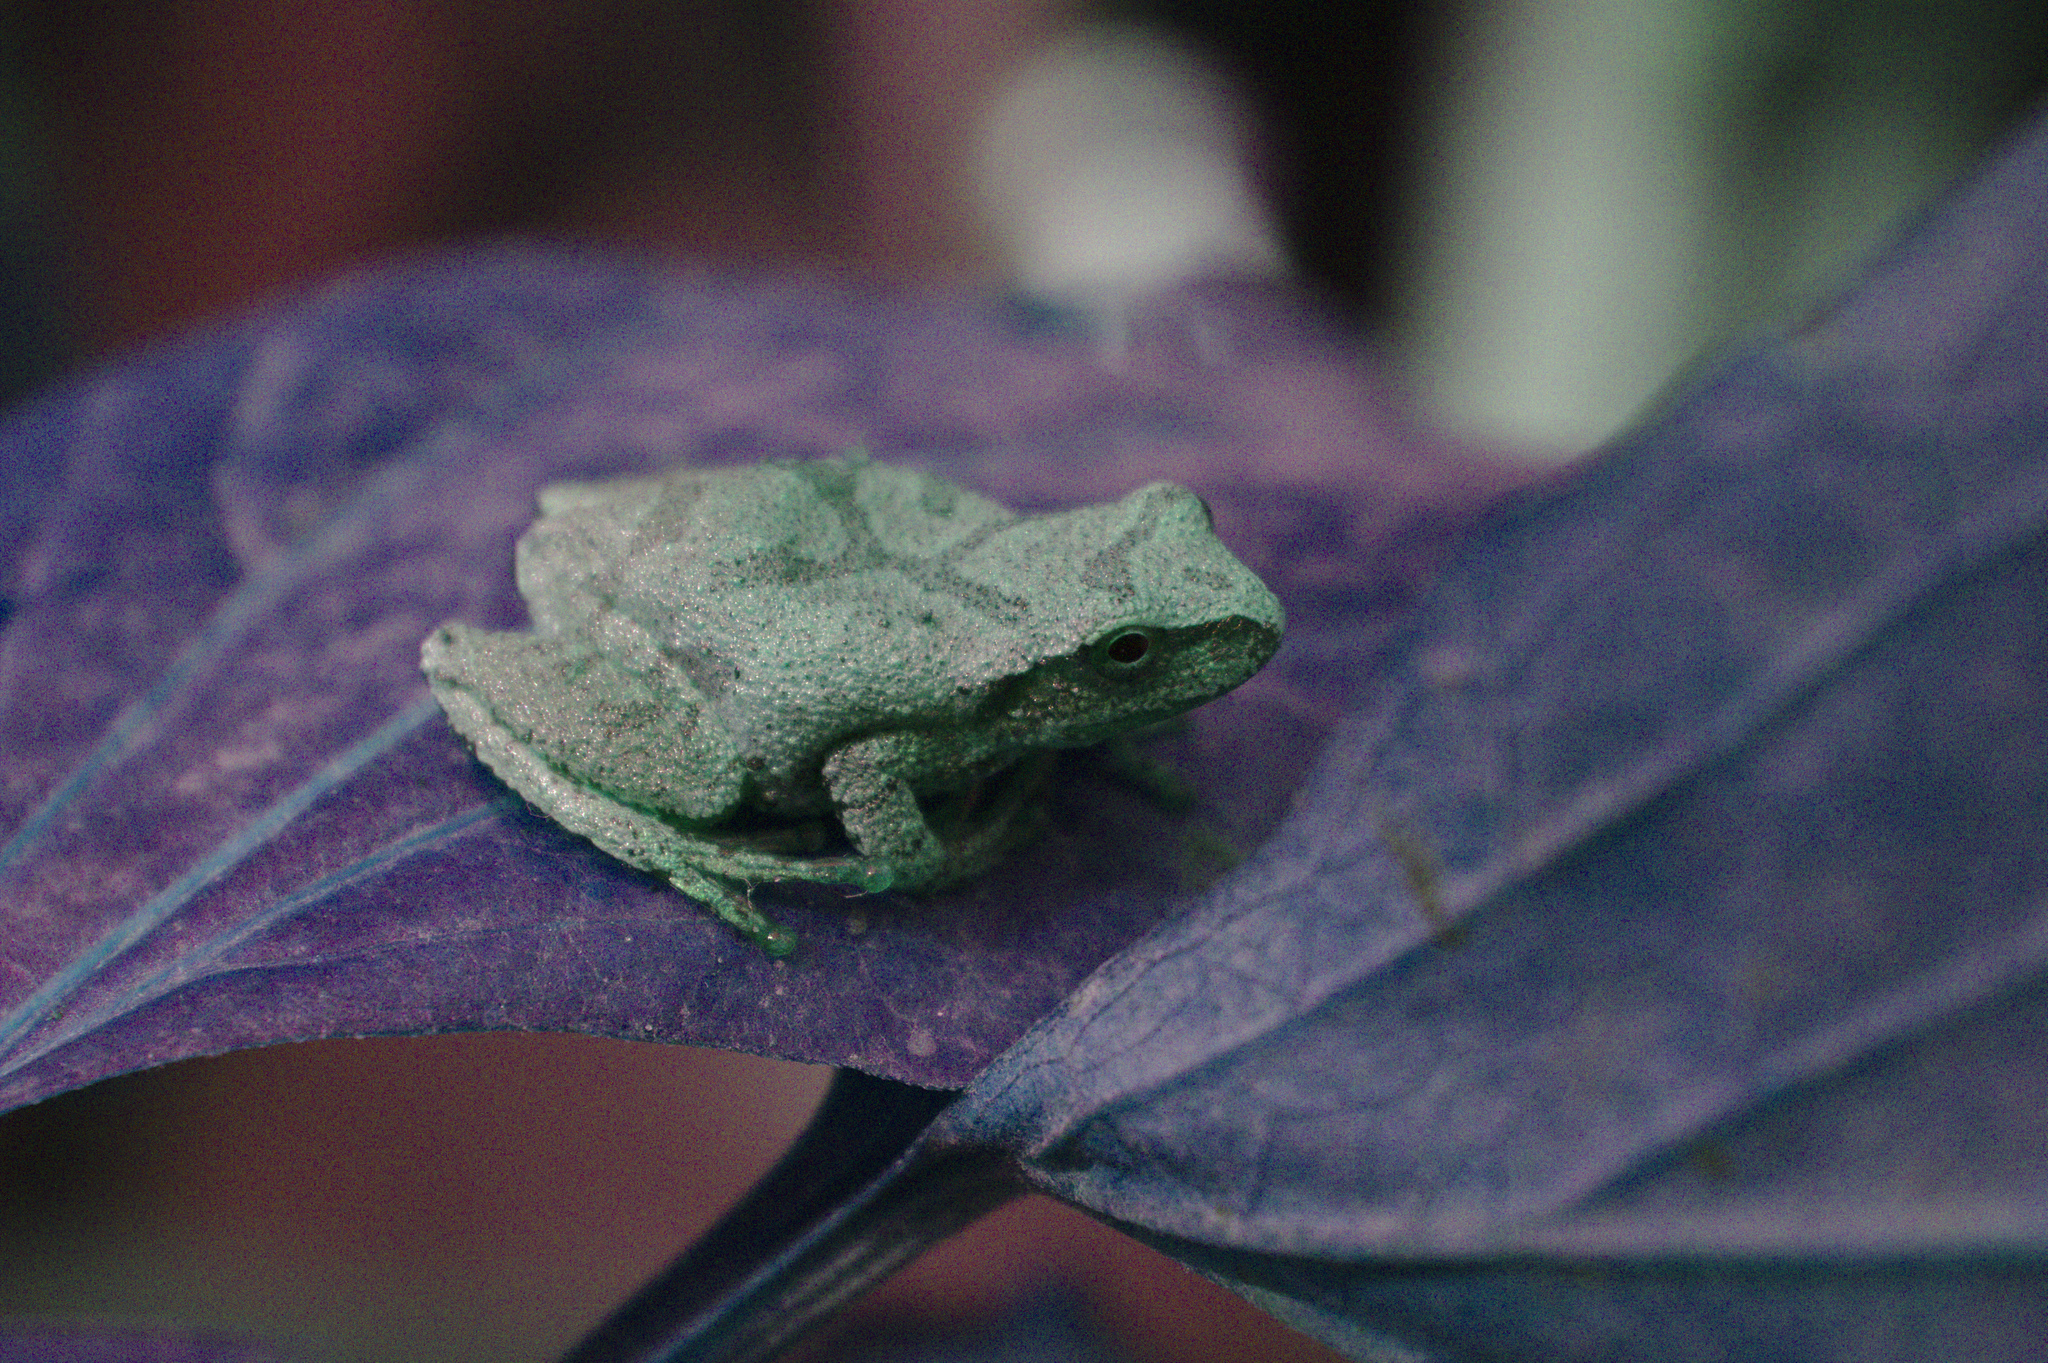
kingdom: Animalia
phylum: Chordata
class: Amphibia
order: Anura
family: Hylidae
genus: Pseudacris
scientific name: Pseudacris crucifer
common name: Spring peeper
